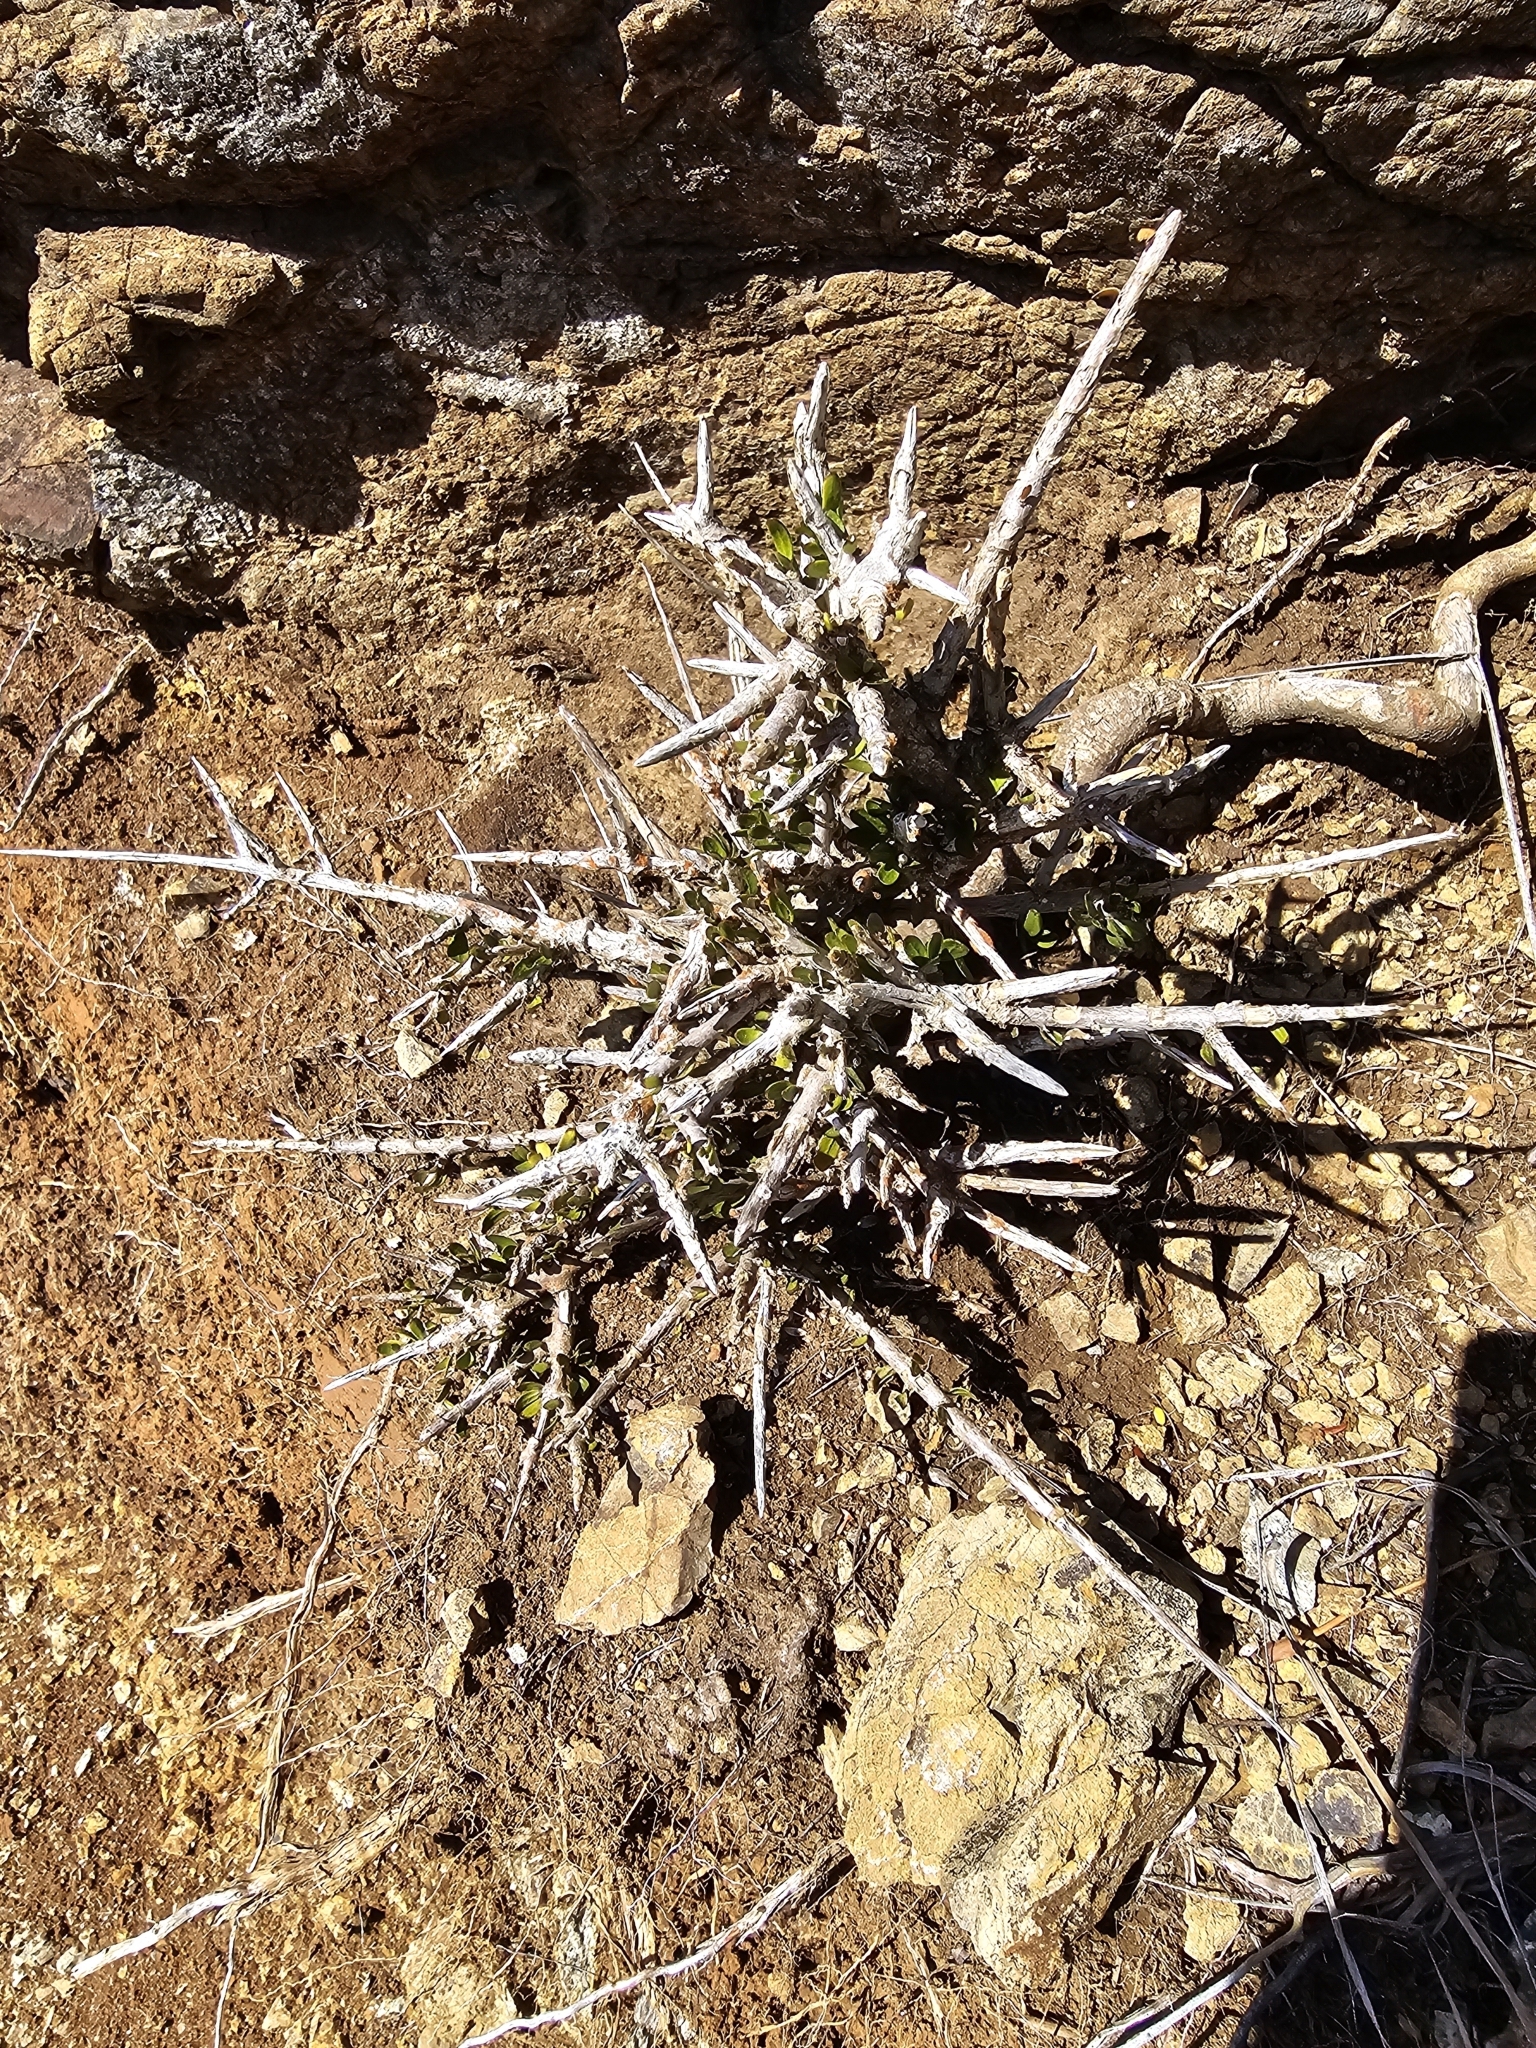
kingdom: Plantae
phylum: Tracheophyta
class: Magnoliopsida
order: Malpighiales
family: Violaceae
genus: Melicytus
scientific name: Melicytus alpinus
